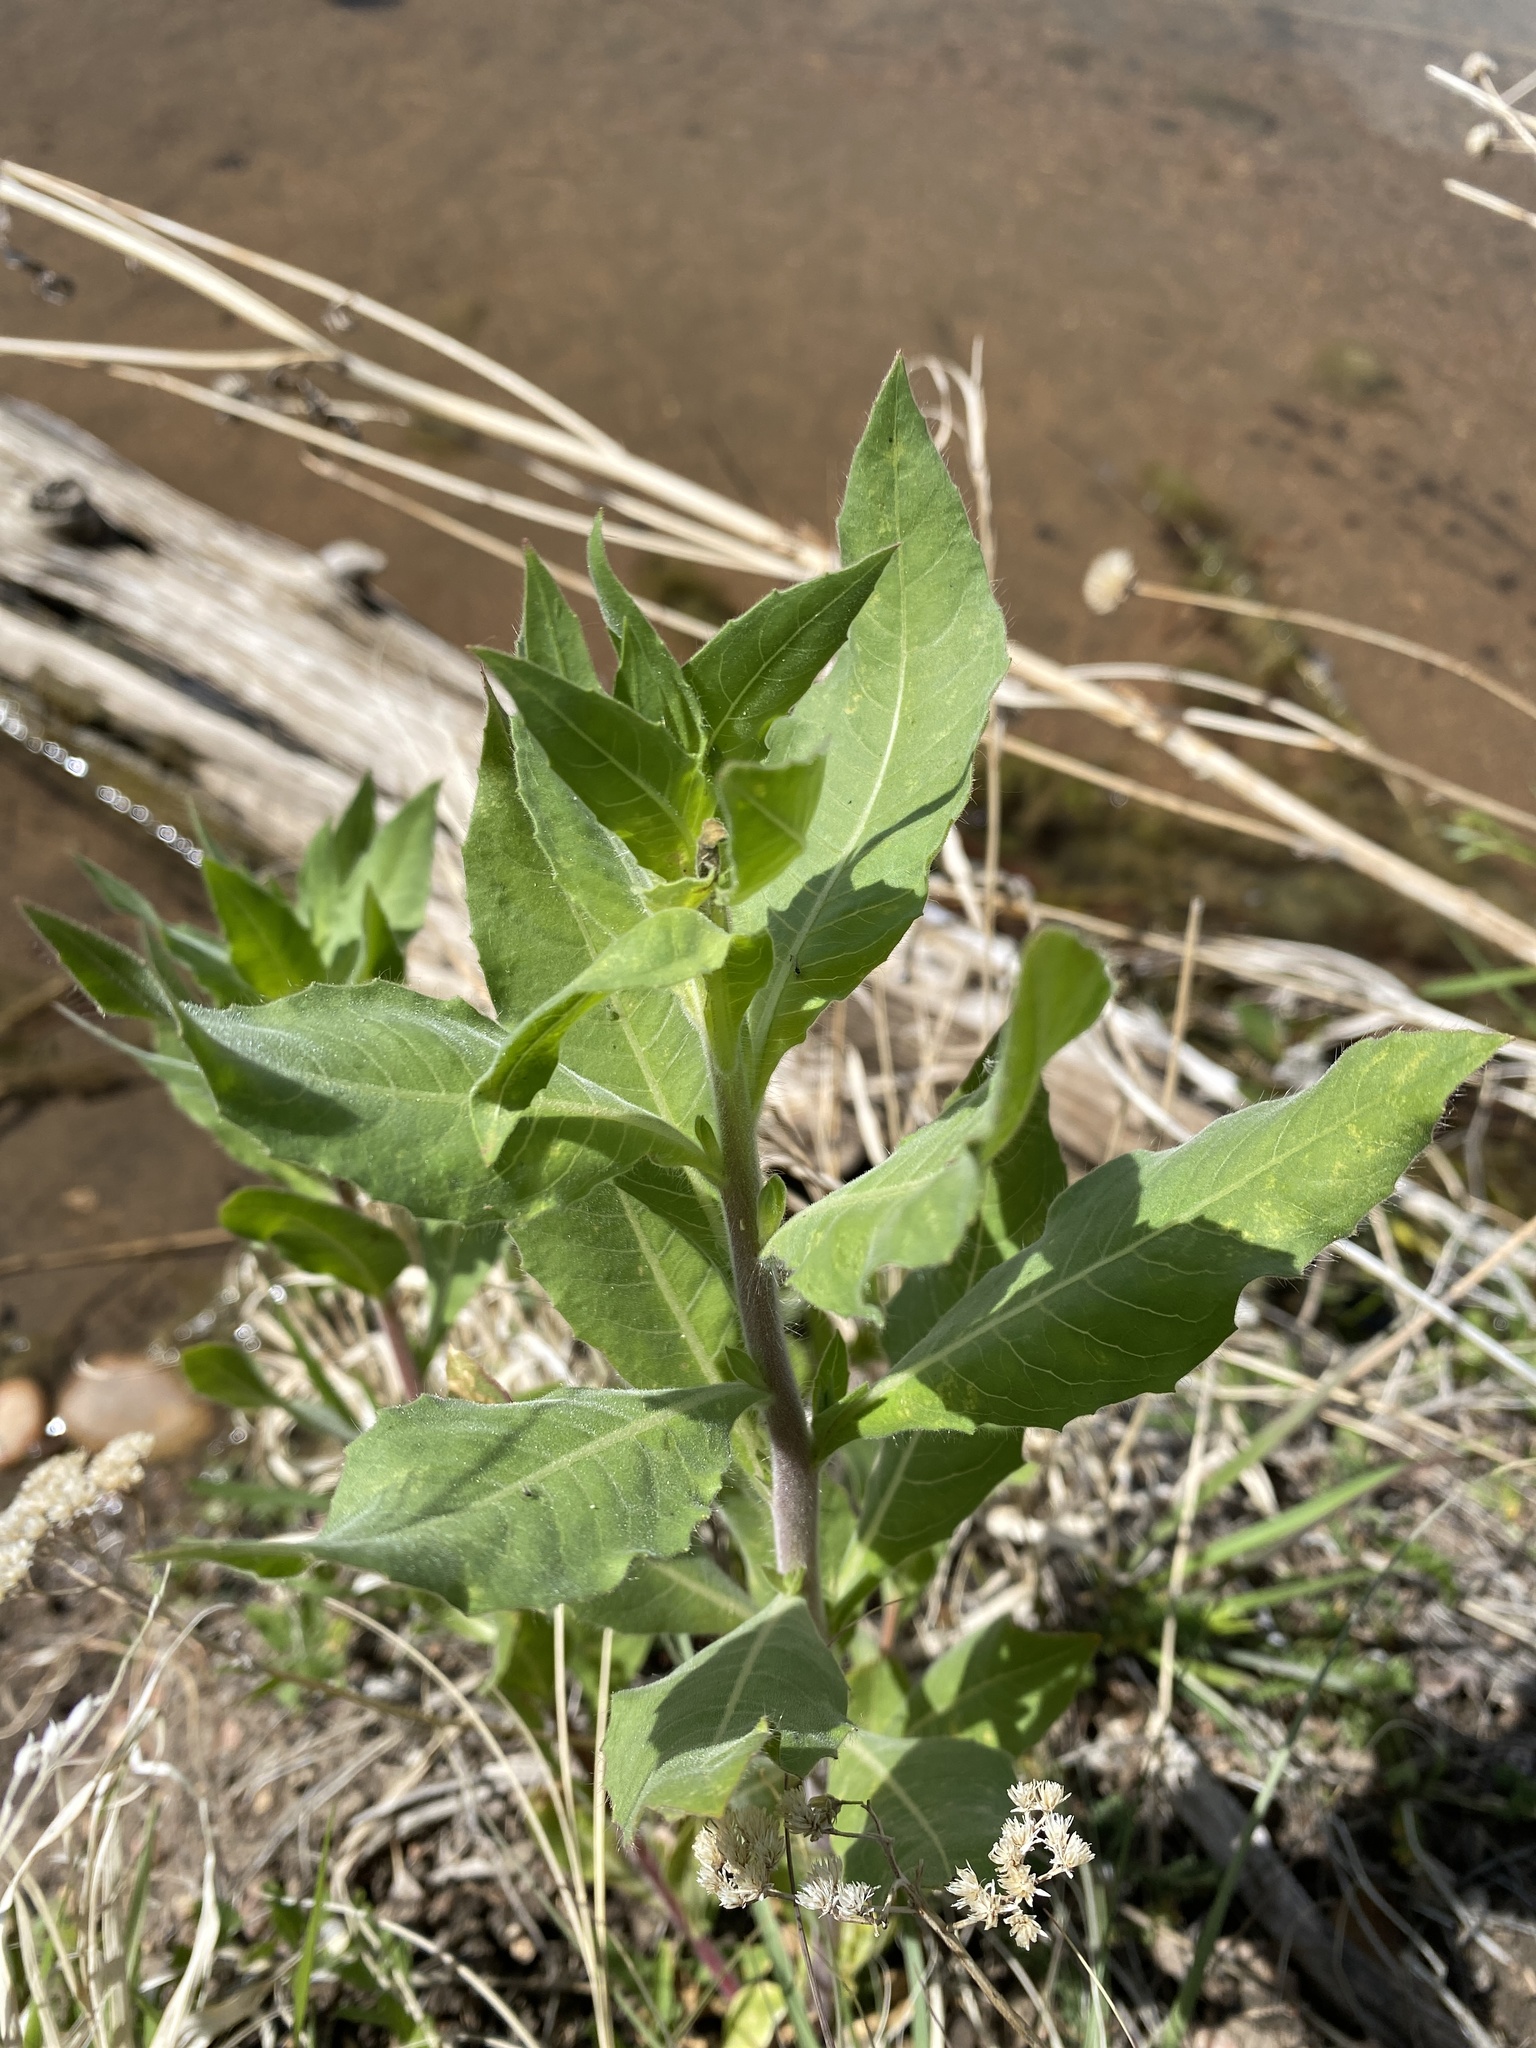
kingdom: Plantae
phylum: Tracheophyta
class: Magnoliopsida
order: Myrtales
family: Onagraceae
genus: Oenothera
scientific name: Oenothera curtiflora
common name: Velvetweed
